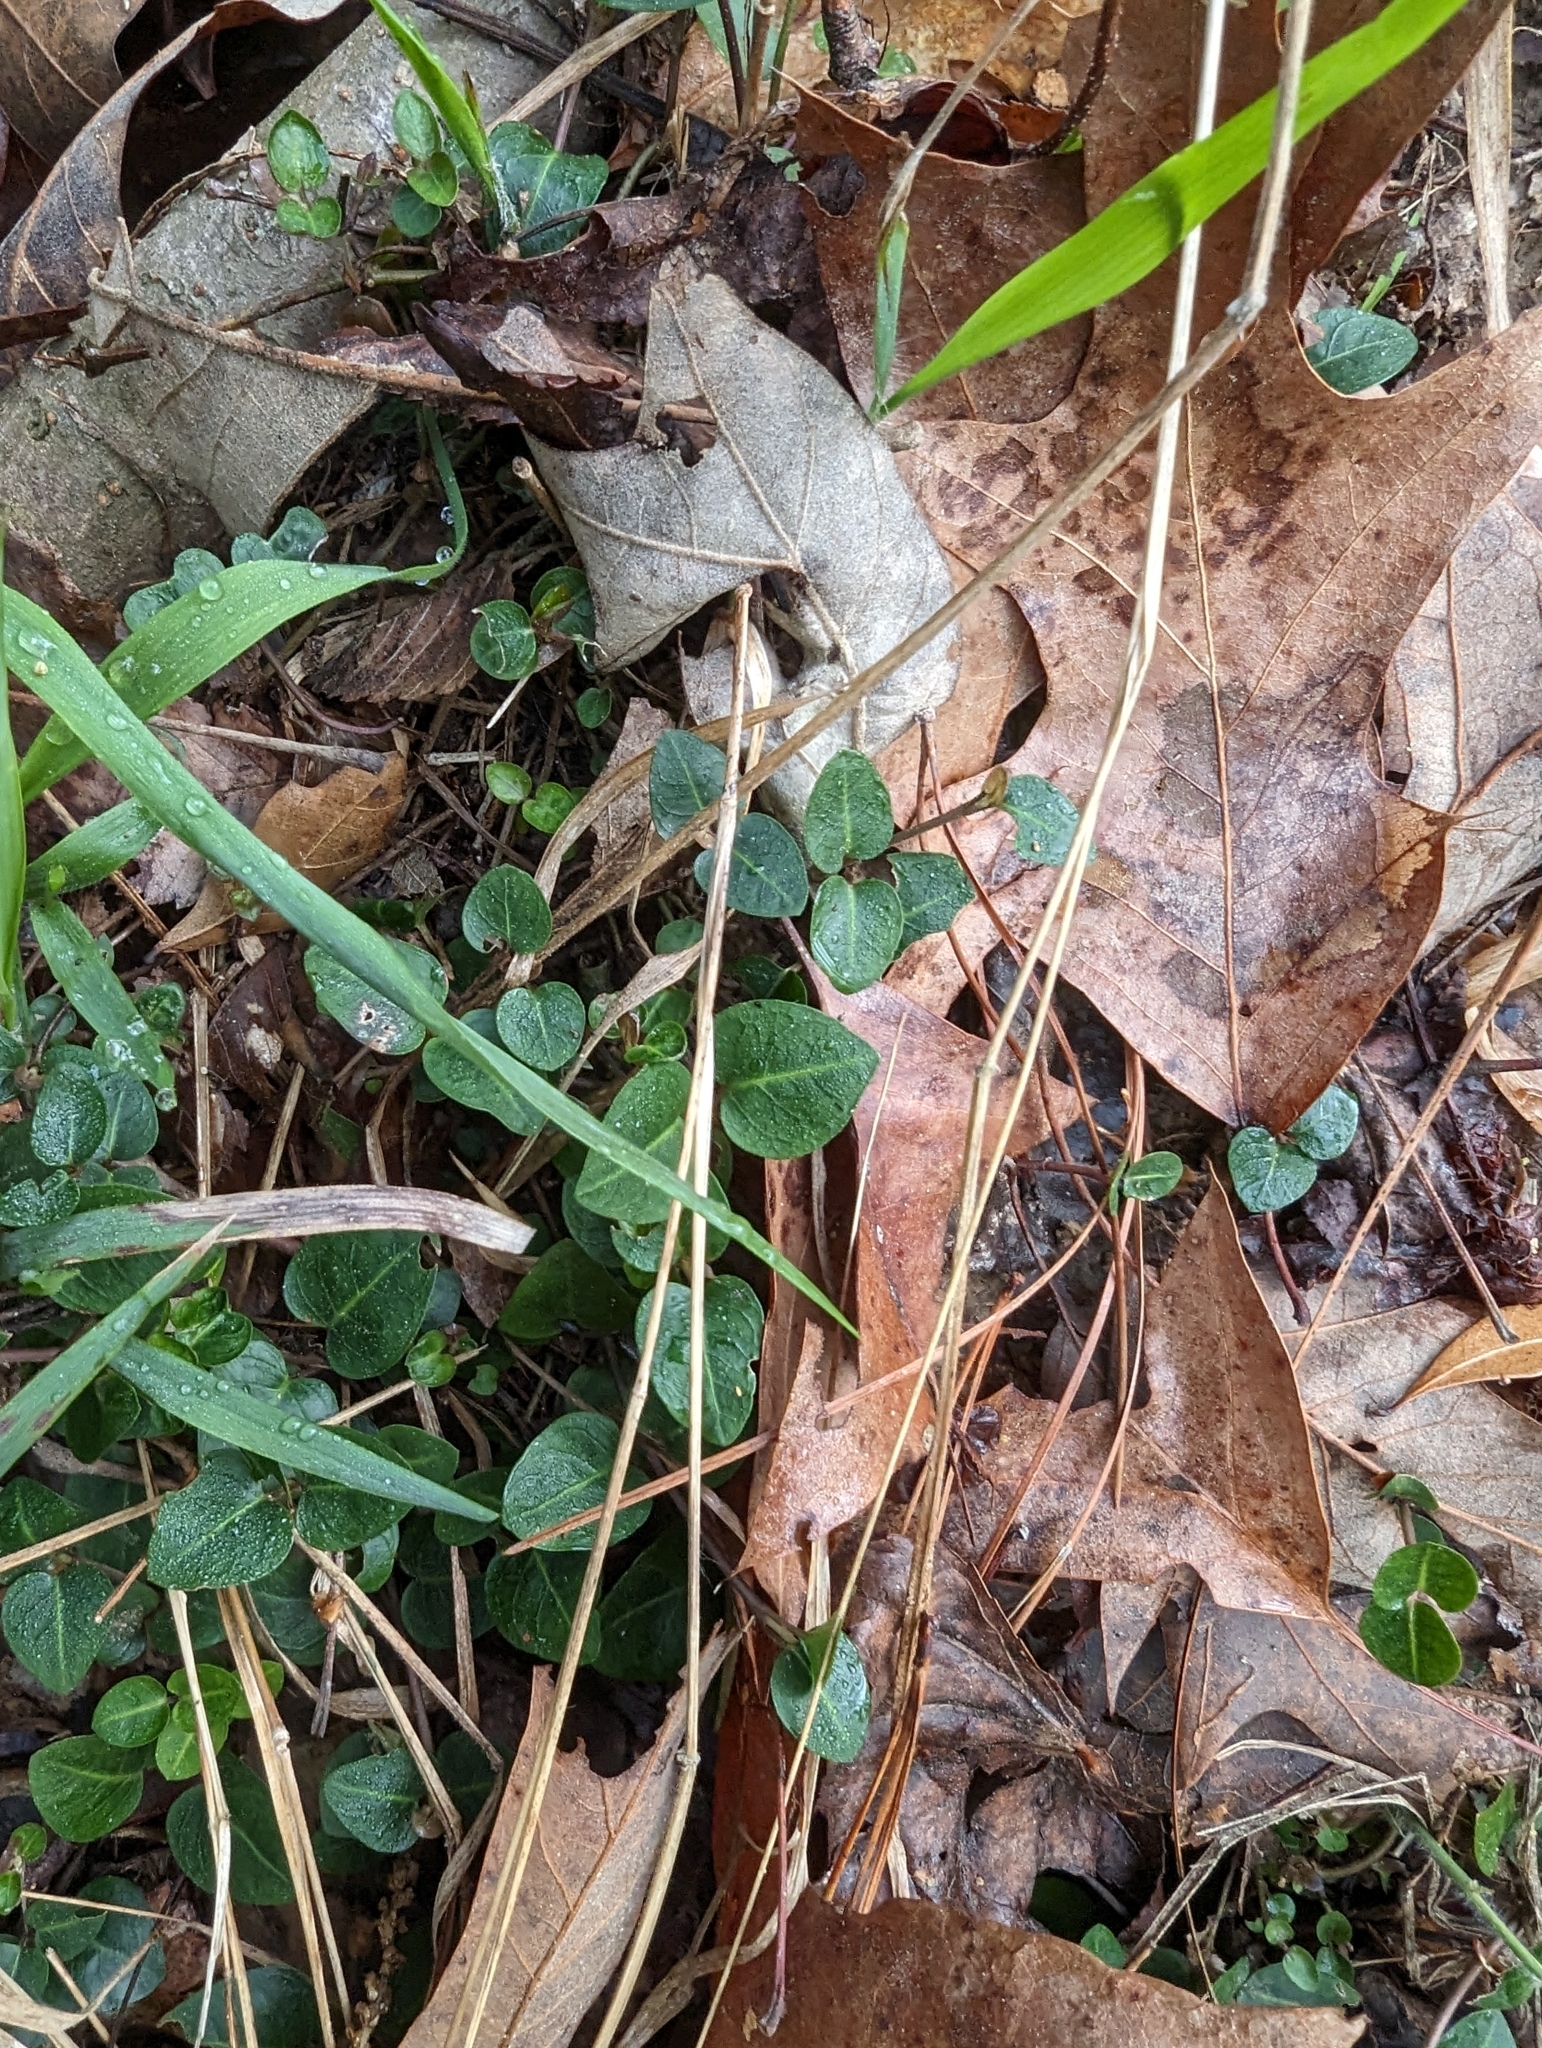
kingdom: Plantae
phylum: Tracheophyta
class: Magnoliopsida
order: Gentianales
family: Rubiaceae
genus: Mitchella
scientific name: Mitchella repens
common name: Partridge-berry
